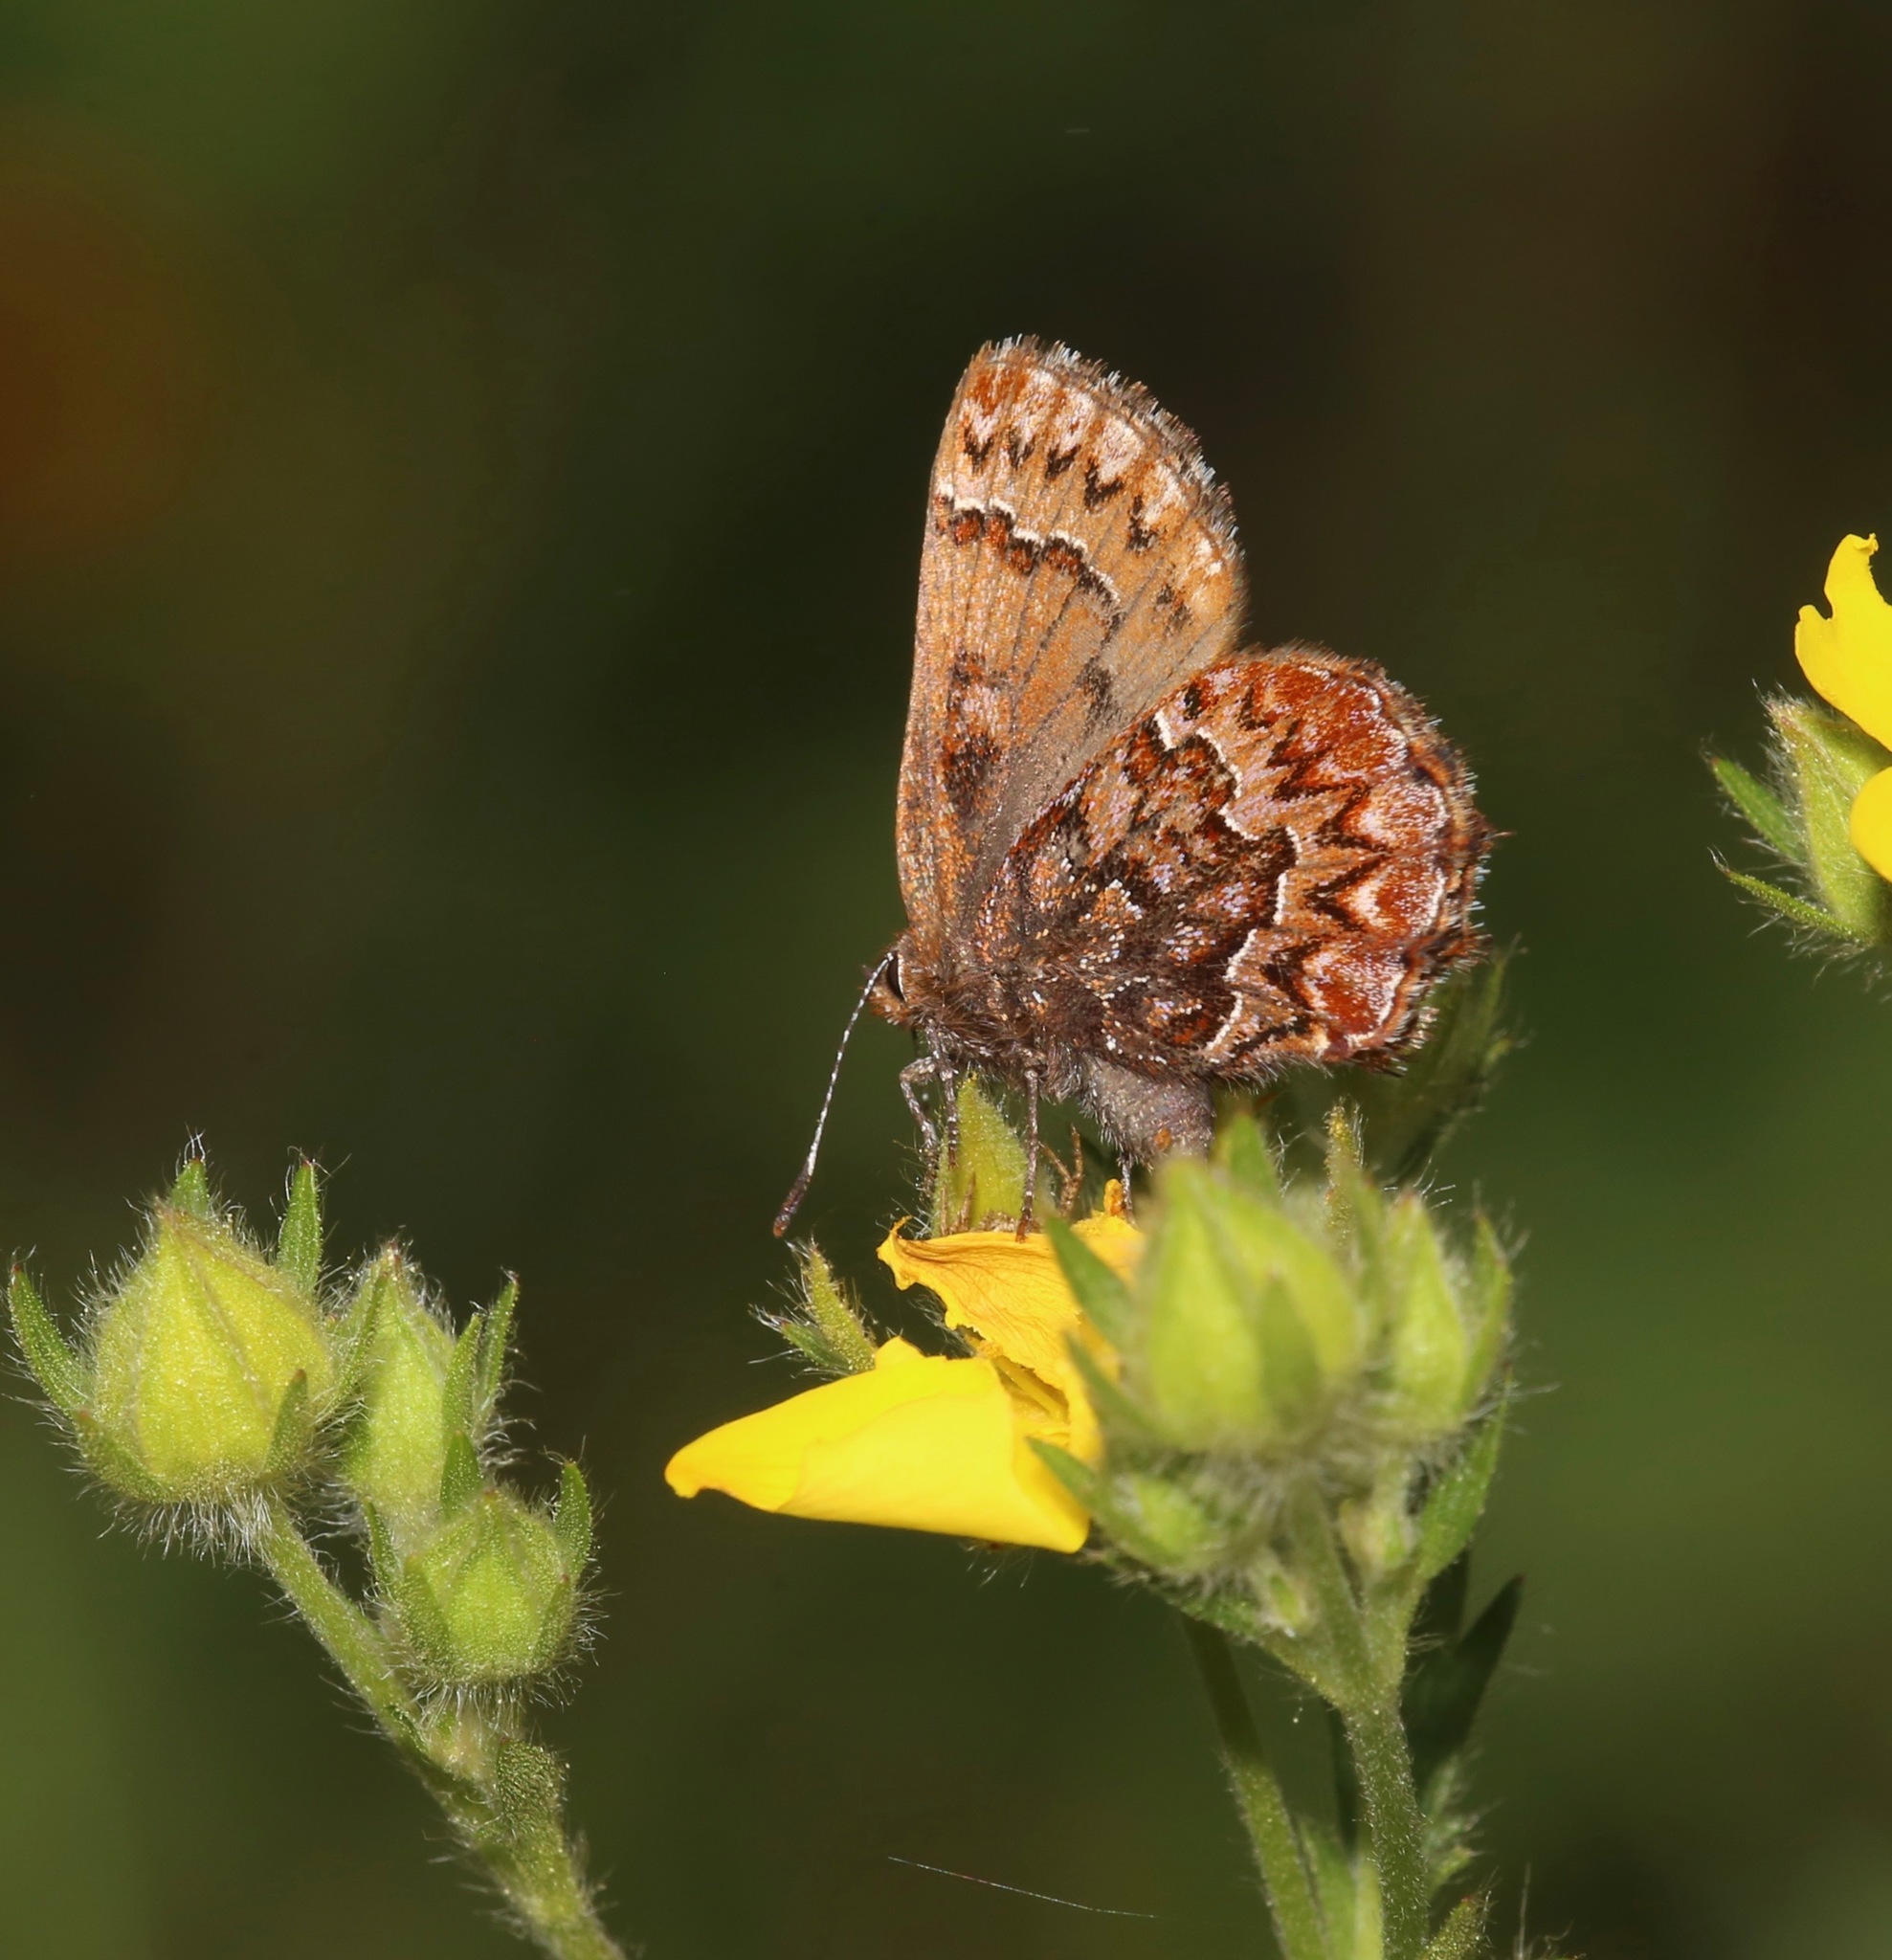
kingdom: Animalia
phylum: Arthropoda
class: Insecta
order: Lepidoptera
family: Lycaenidae
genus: Incisalia
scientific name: Incisalia eryphon
